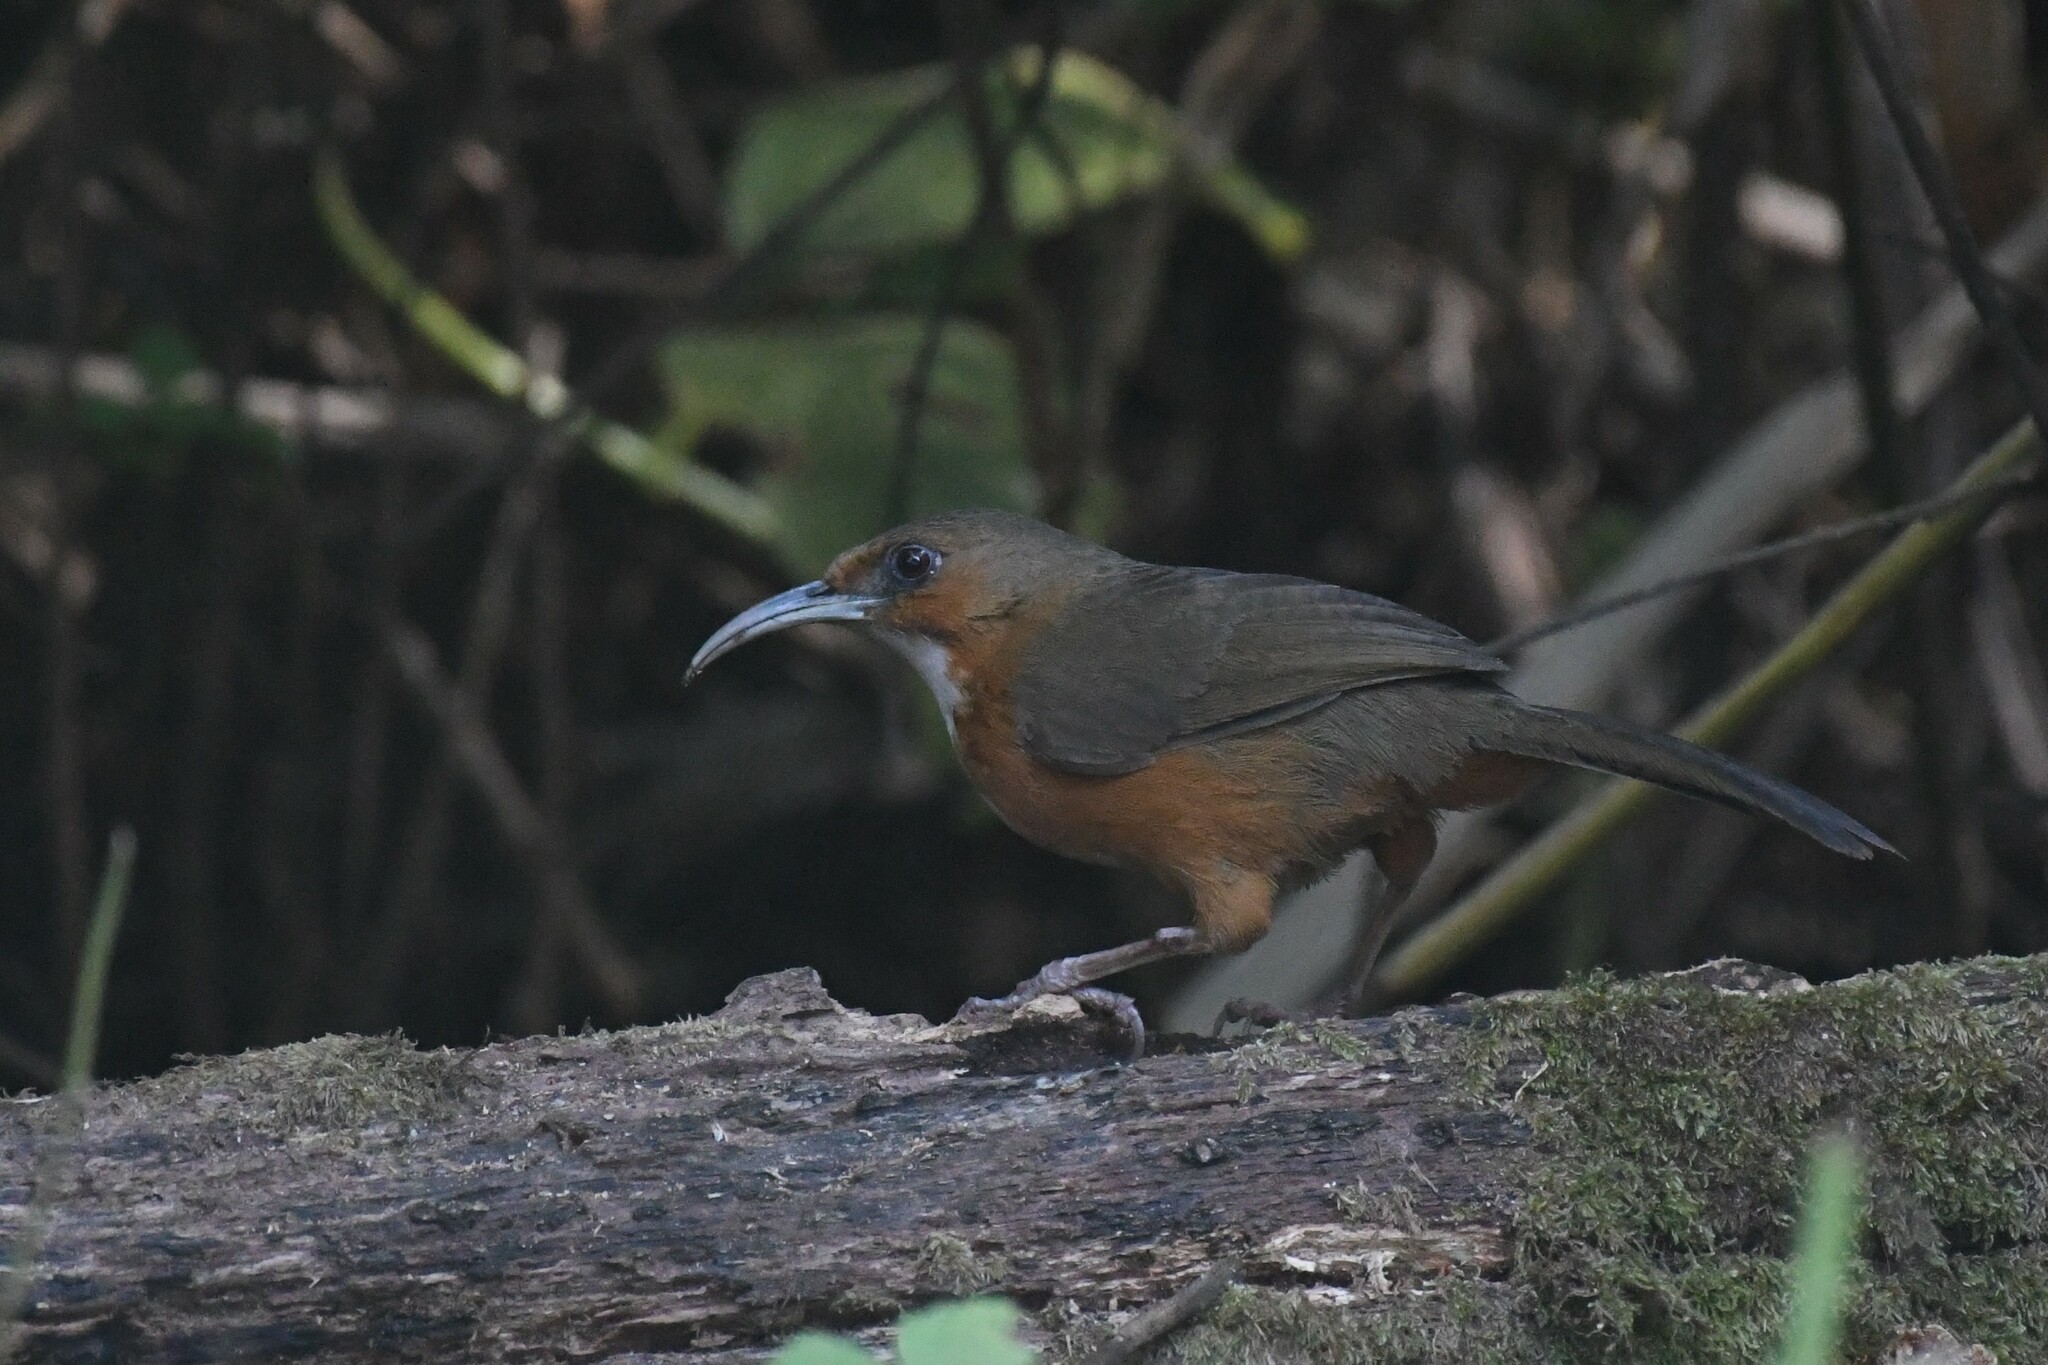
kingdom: Animalia
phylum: Chordata
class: Aves
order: Passeriformes
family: Timaliidae
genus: Pomatorhinus
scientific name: Pomatorhinus erythrogenys
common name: Rusty-cheeked scimitar babbler
